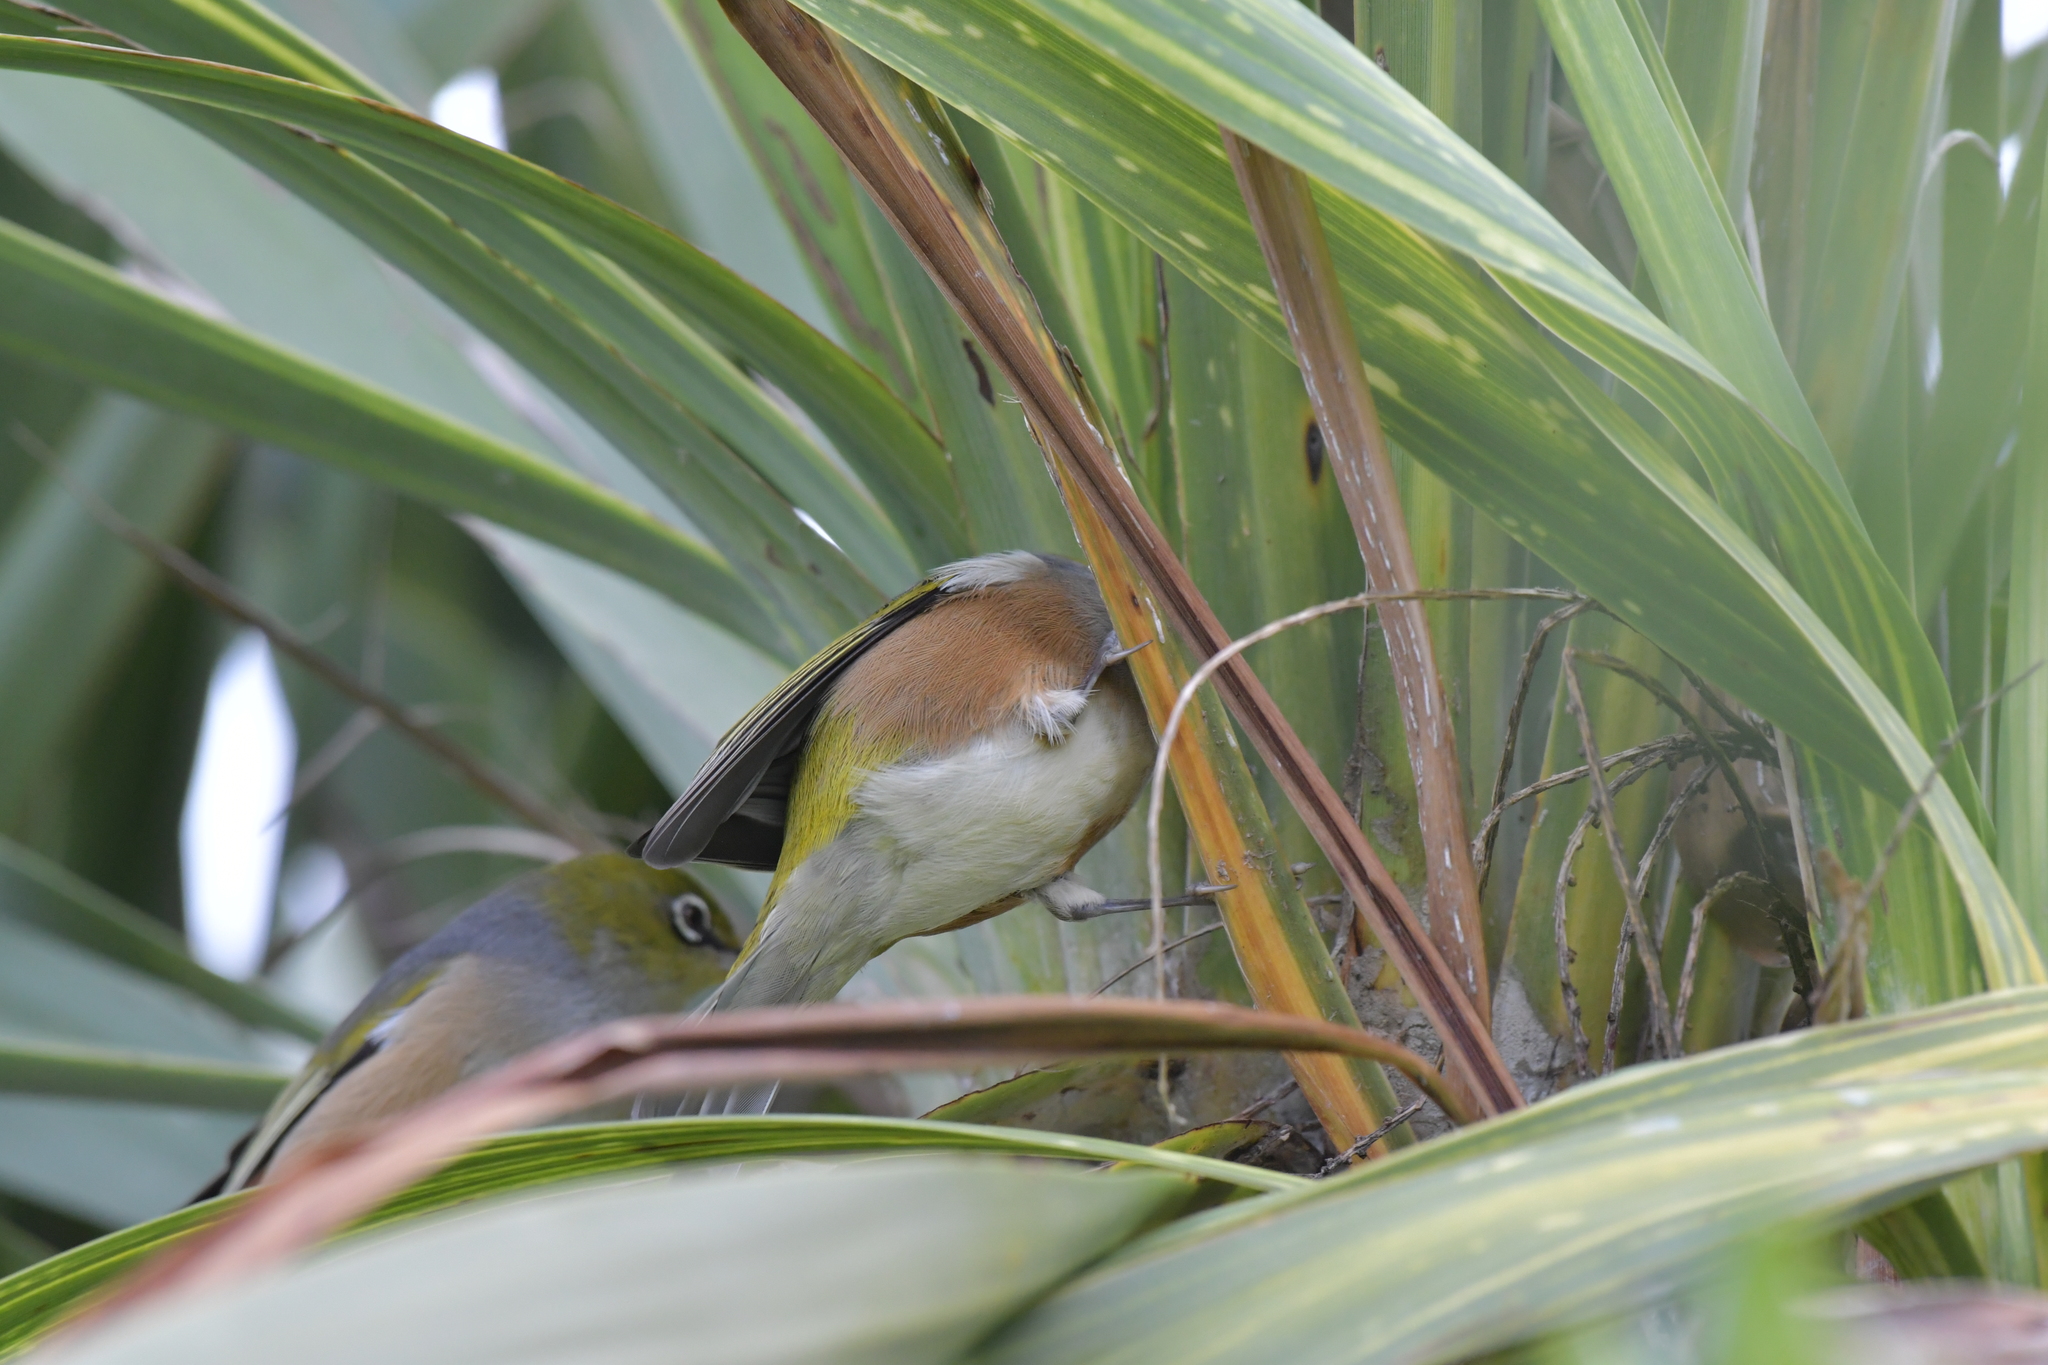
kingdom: Animalia
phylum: Chordata
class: Aves
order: Passeriformes
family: Zosteropidae
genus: Zosterops
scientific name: Zosterops lateralis
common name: Silvereye
